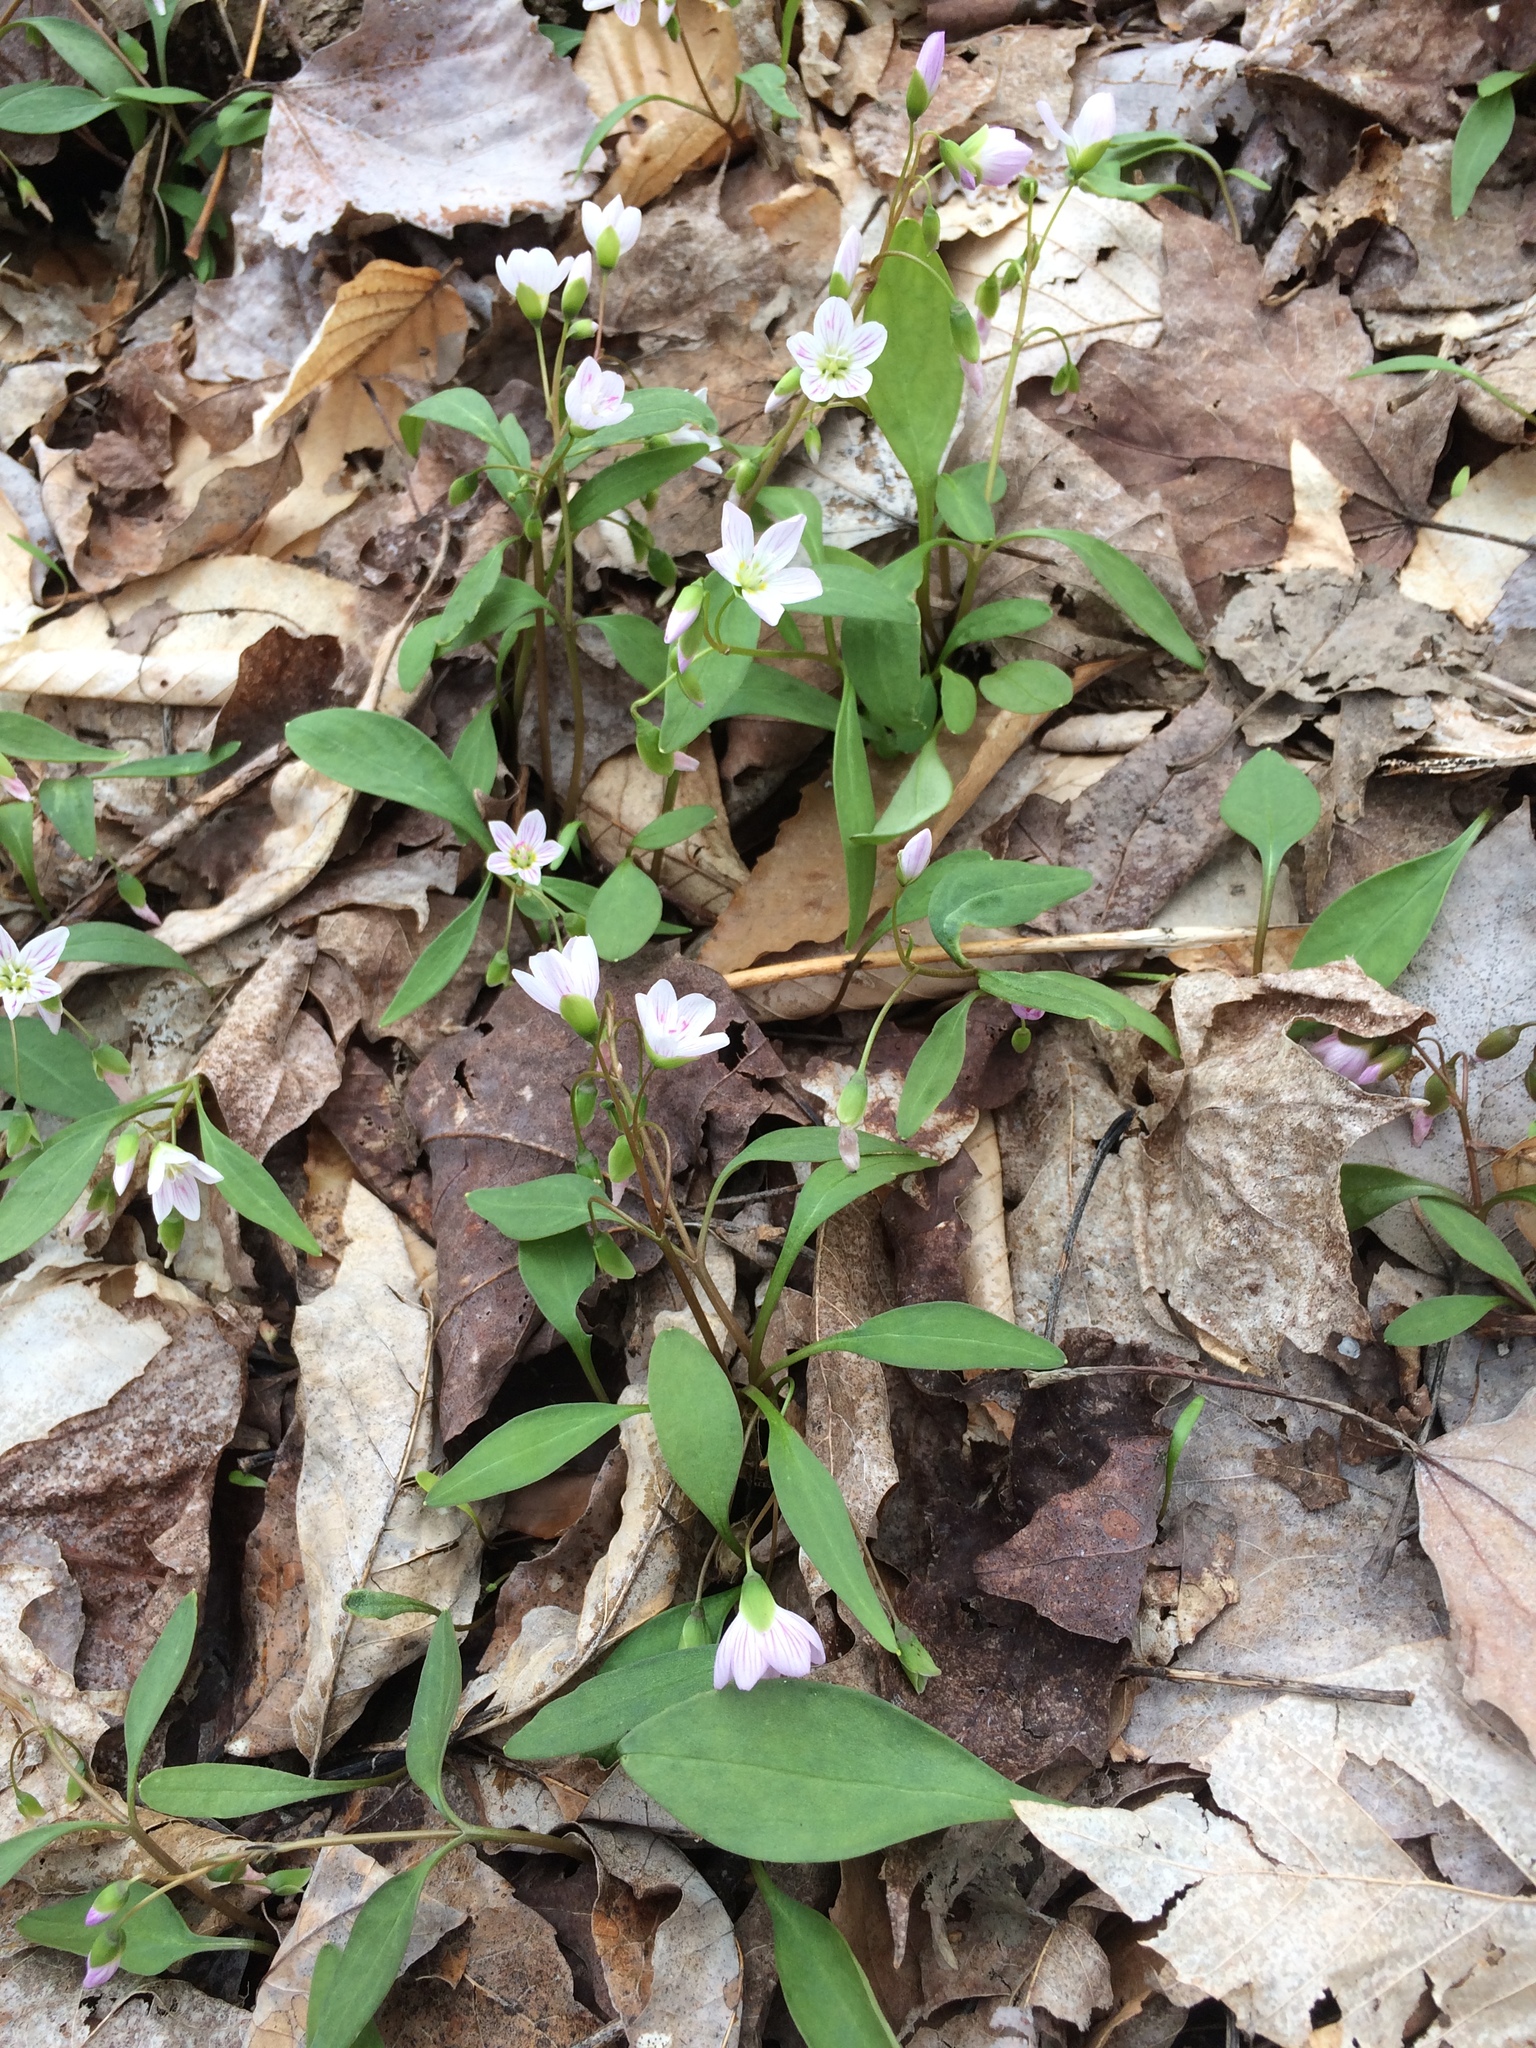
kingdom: Plantae
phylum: Tracheophyta
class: Magnoliopsida
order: Caryophyllales
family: Montiaceae
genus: Claytonia
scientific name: Claytonia caroliniana
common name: Carolina spring beauty
